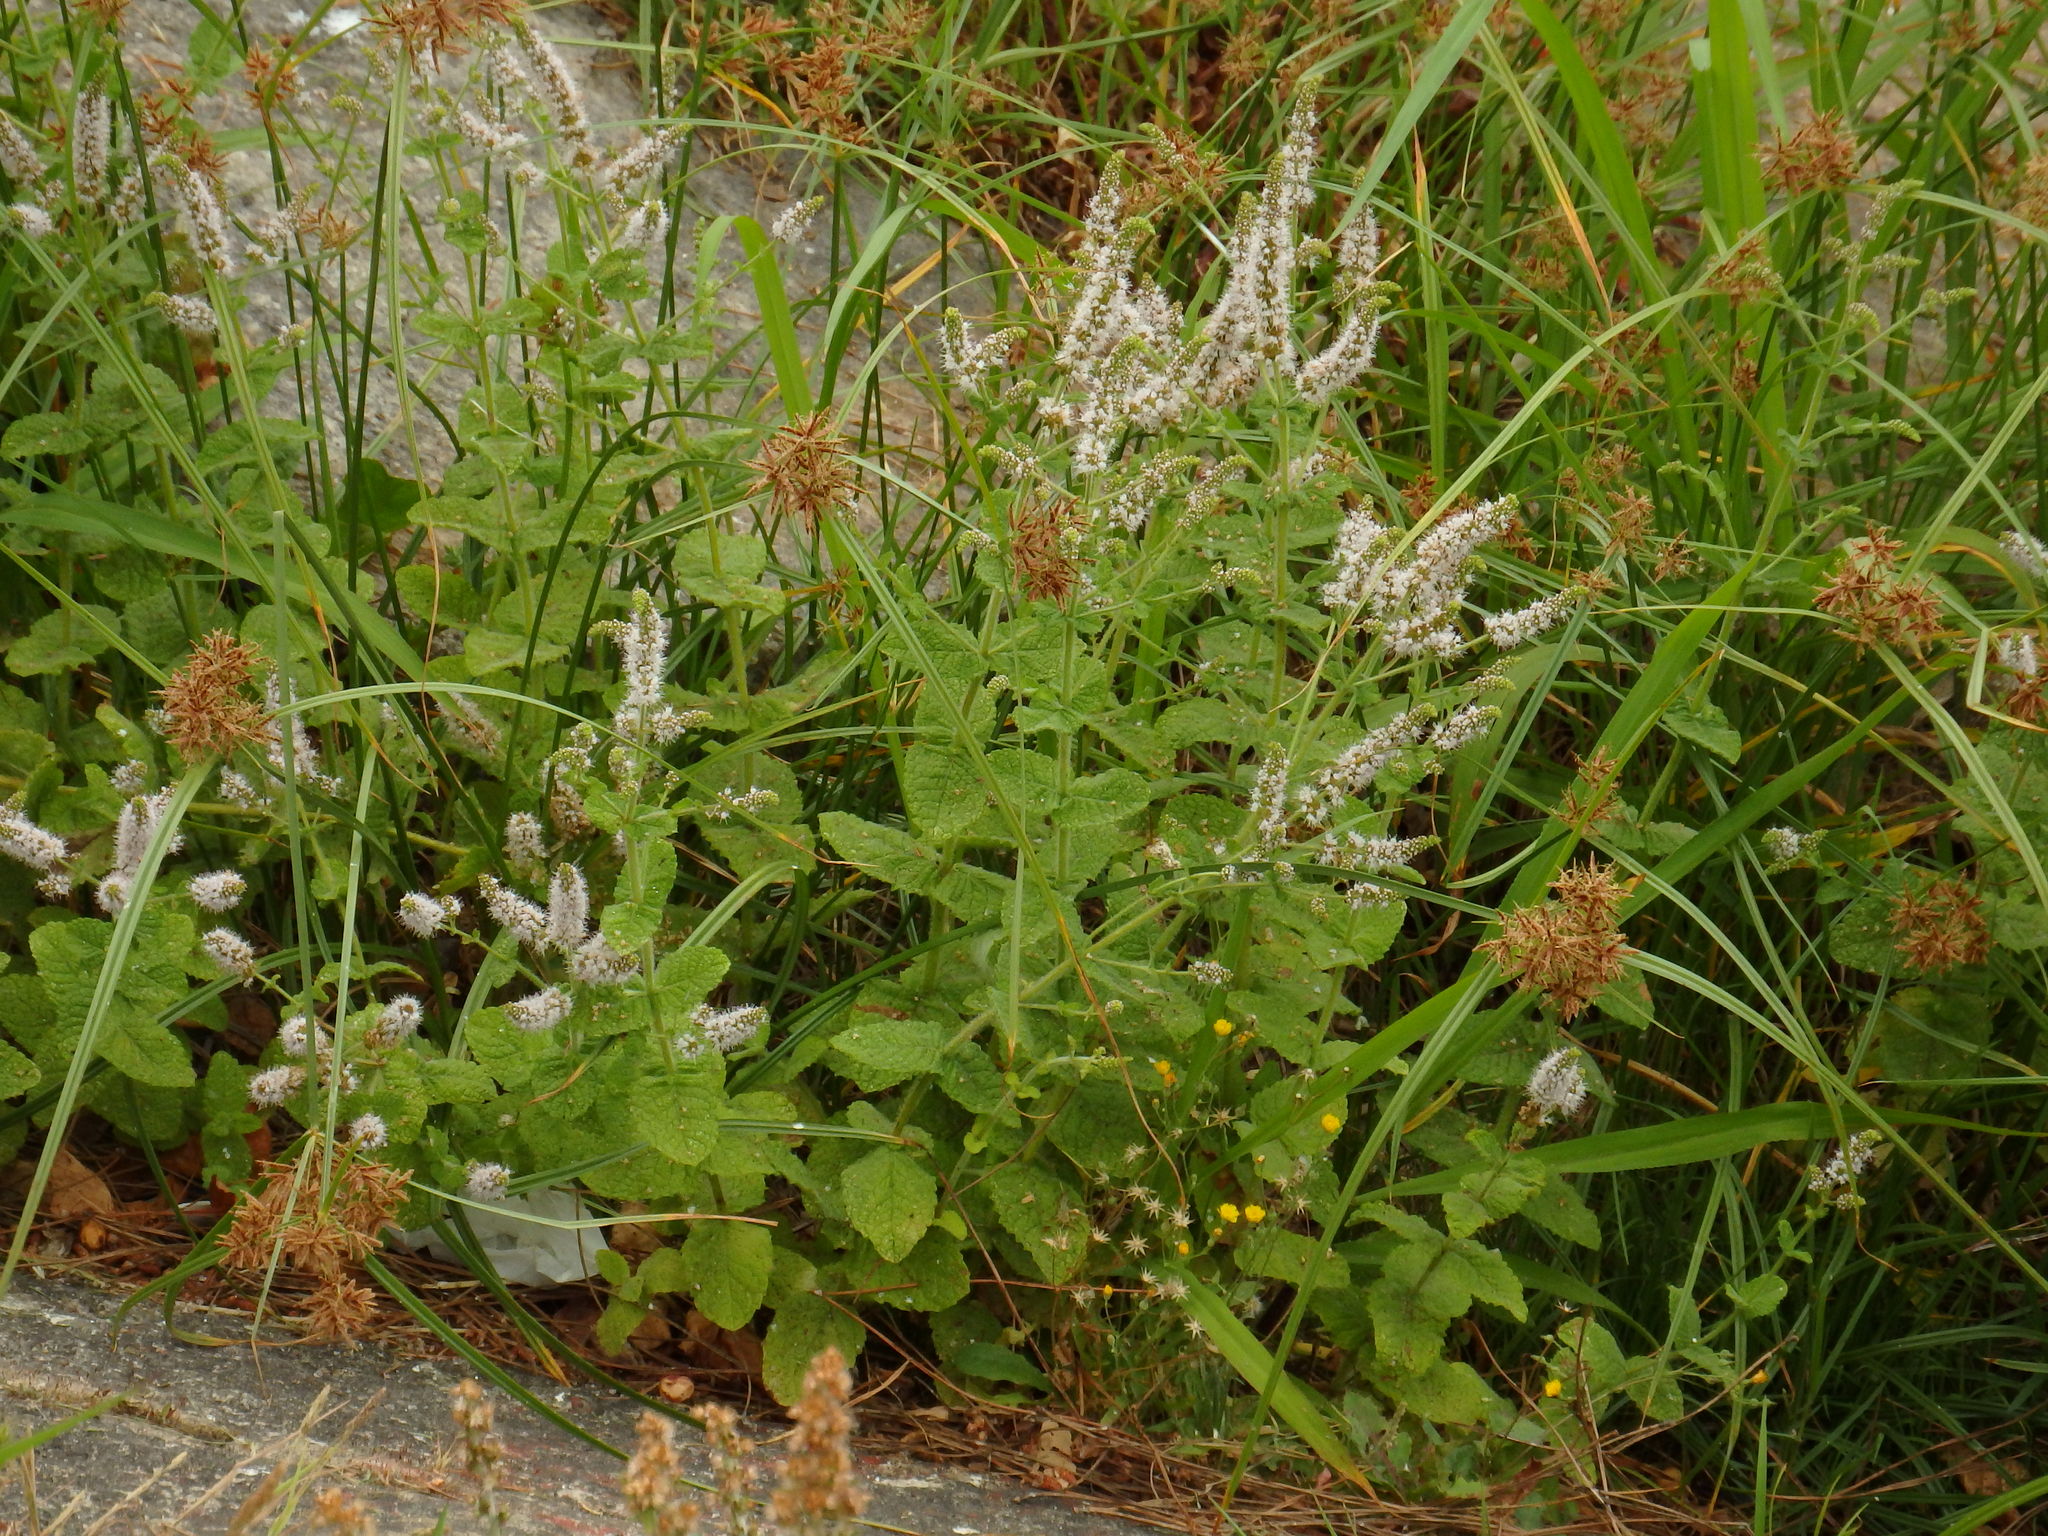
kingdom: Plantae
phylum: Tracheophyta
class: Magnoliopsida
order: Lamiales
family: Lamiaceae
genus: Mentha
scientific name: Mentha suaveolens
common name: Apple mint
